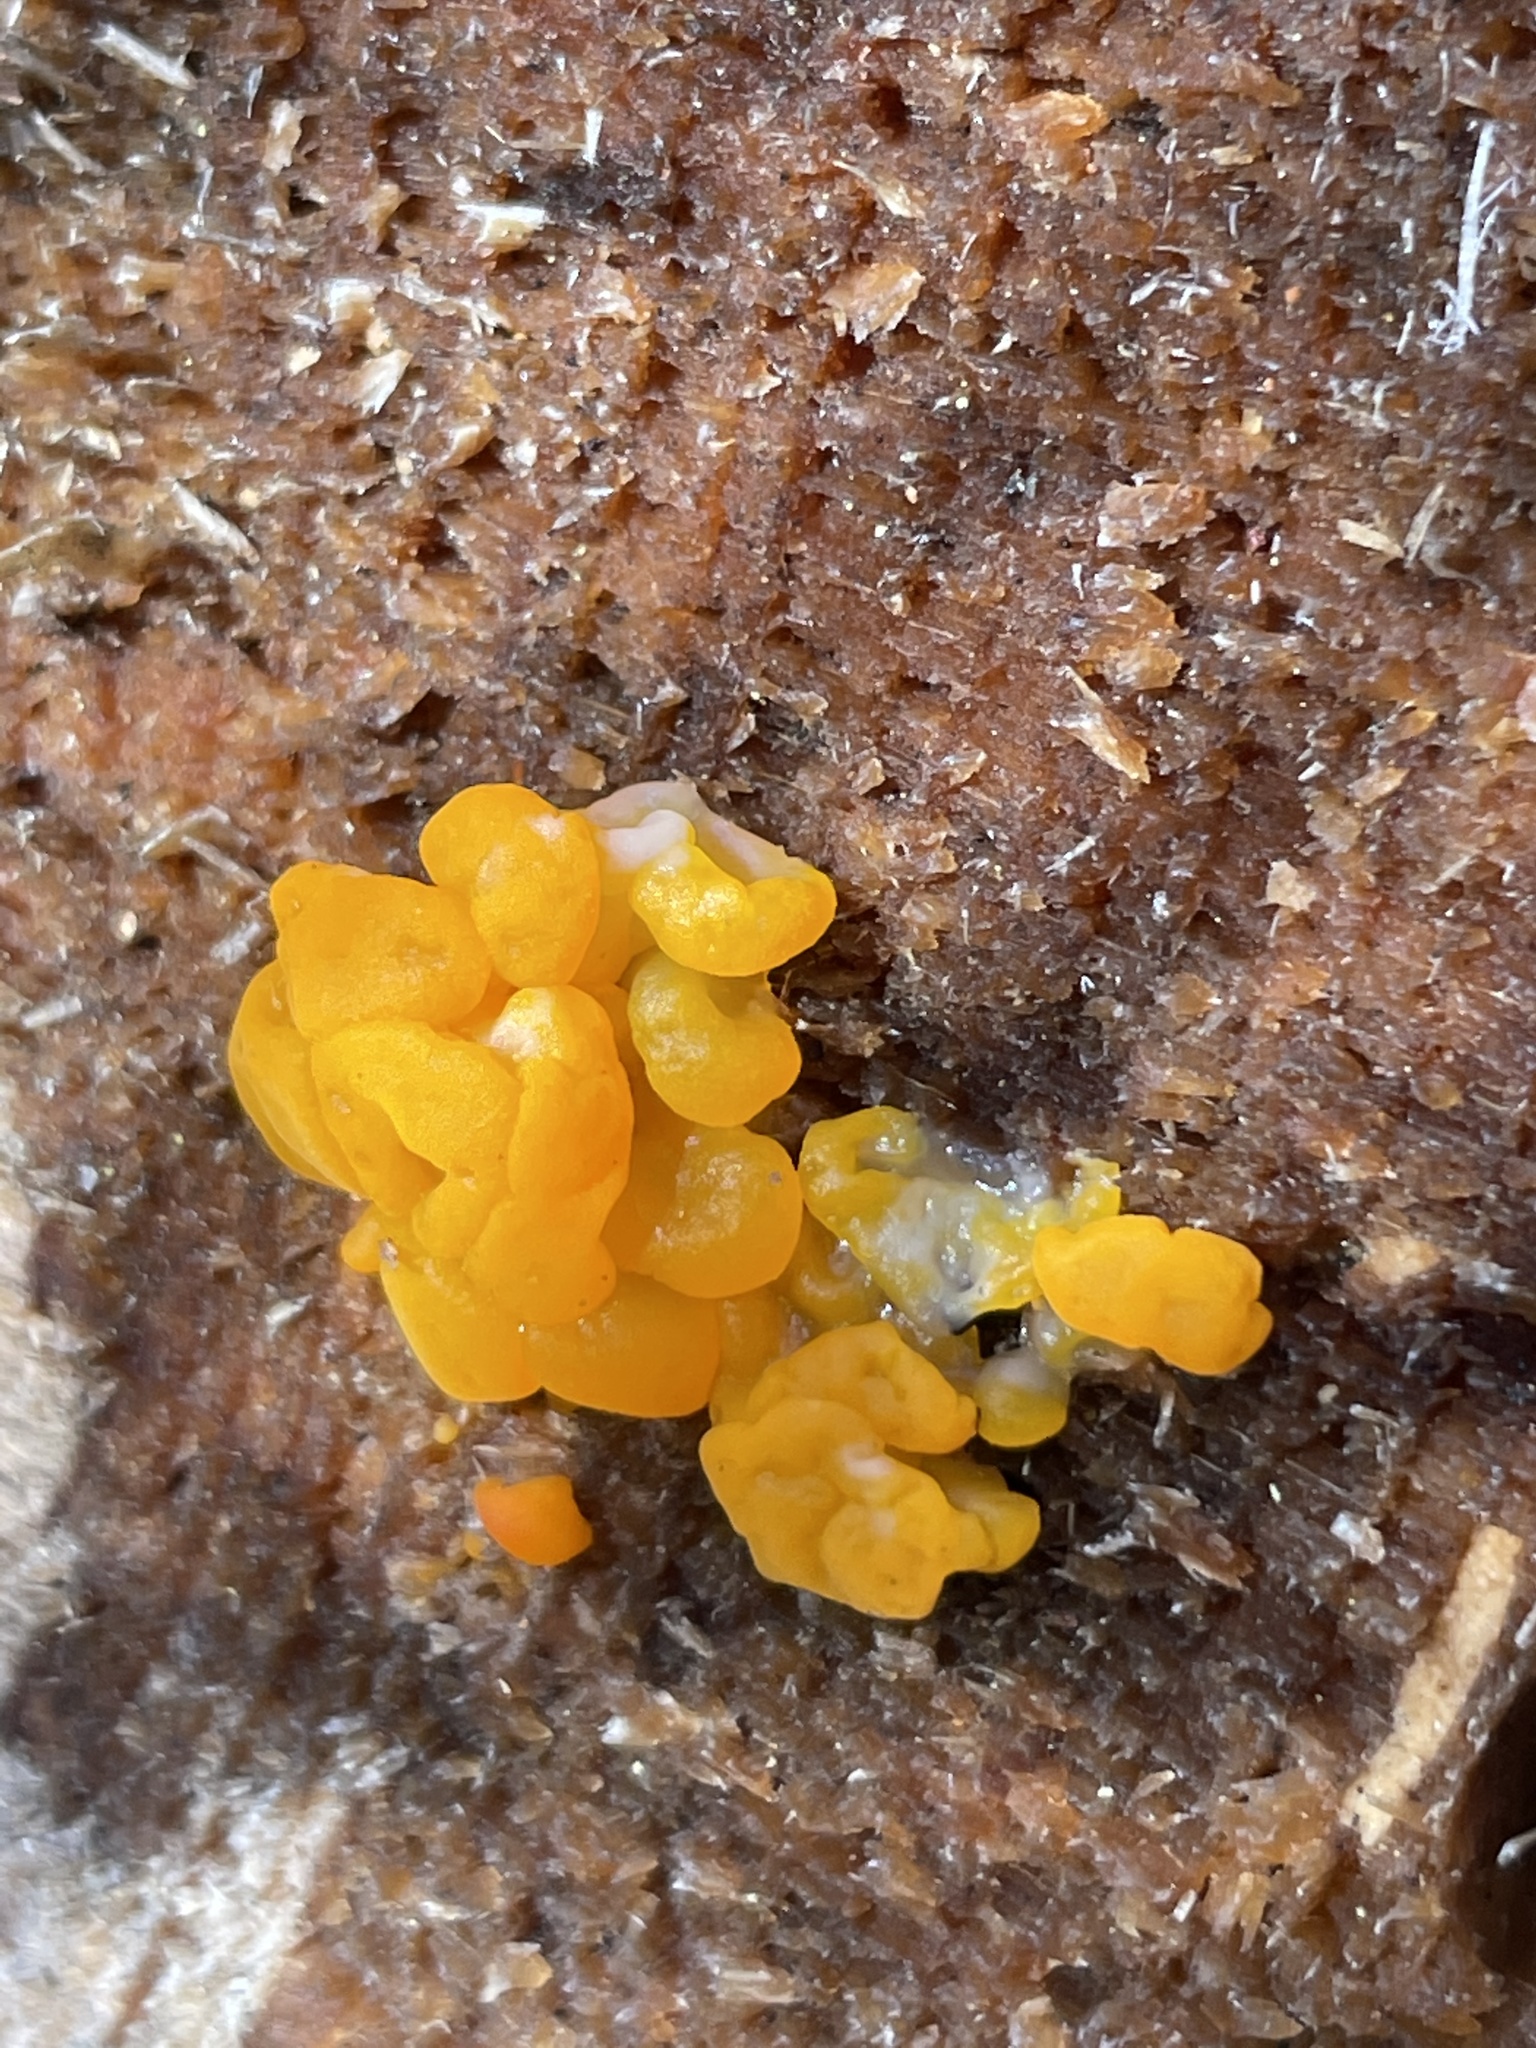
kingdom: Fungi
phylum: Basidiomycota
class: Tremellomycetes
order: Tremellales
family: Tremellaceae
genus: Tremella
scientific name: Tremella mesenterica
